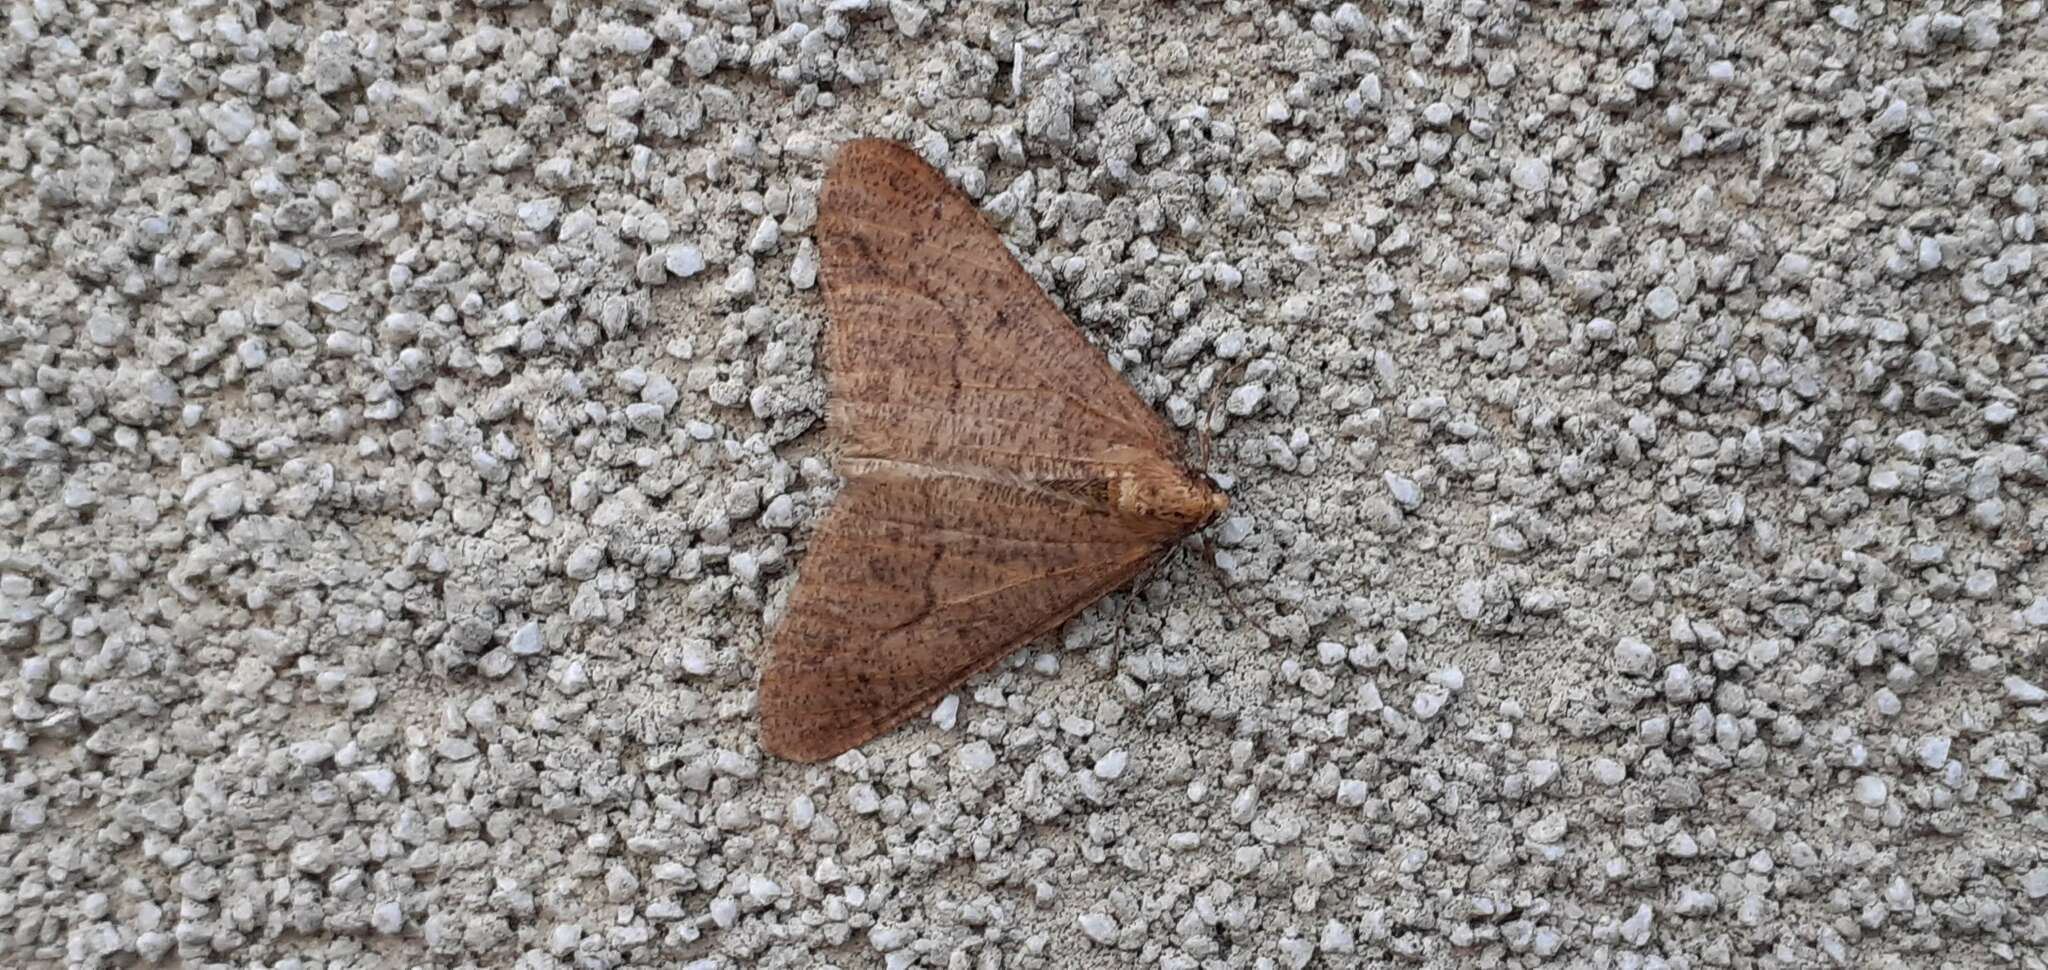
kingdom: Animalia
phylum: Arthropoda
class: Insecta
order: Lepidoptera
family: Geometridae
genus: Erannis
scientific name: Erannis defoliaria
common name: Mottled umber
